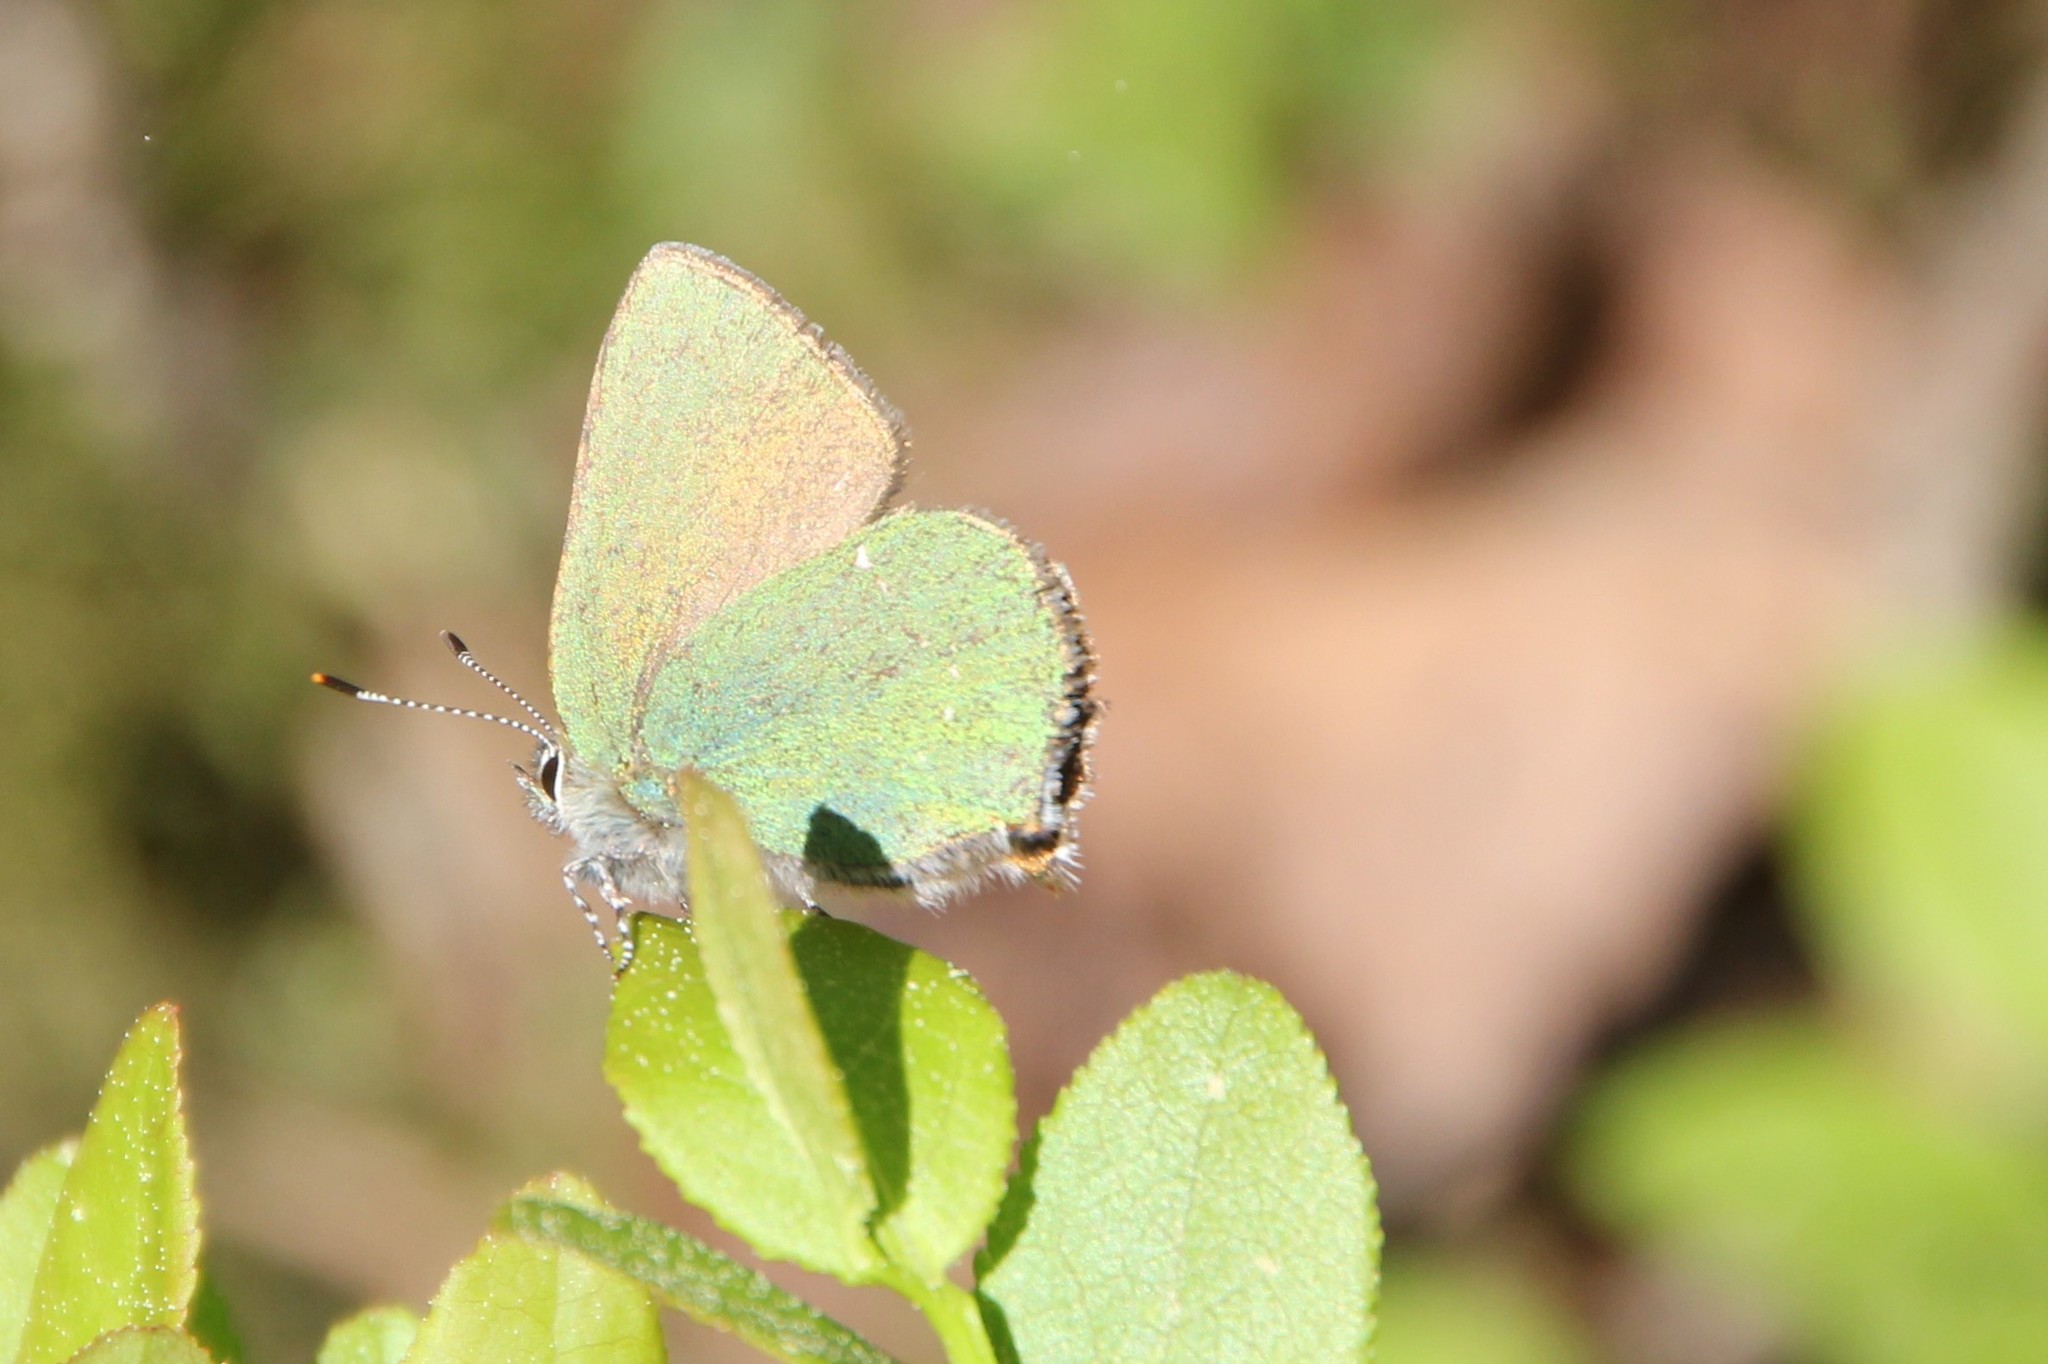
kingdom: Animalia
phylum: Arthropoda
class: Insecta
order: Lepidoptera
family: Lycaenidae
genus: Callophrys
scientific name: Callophrys rubi
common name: Green hairstreak
